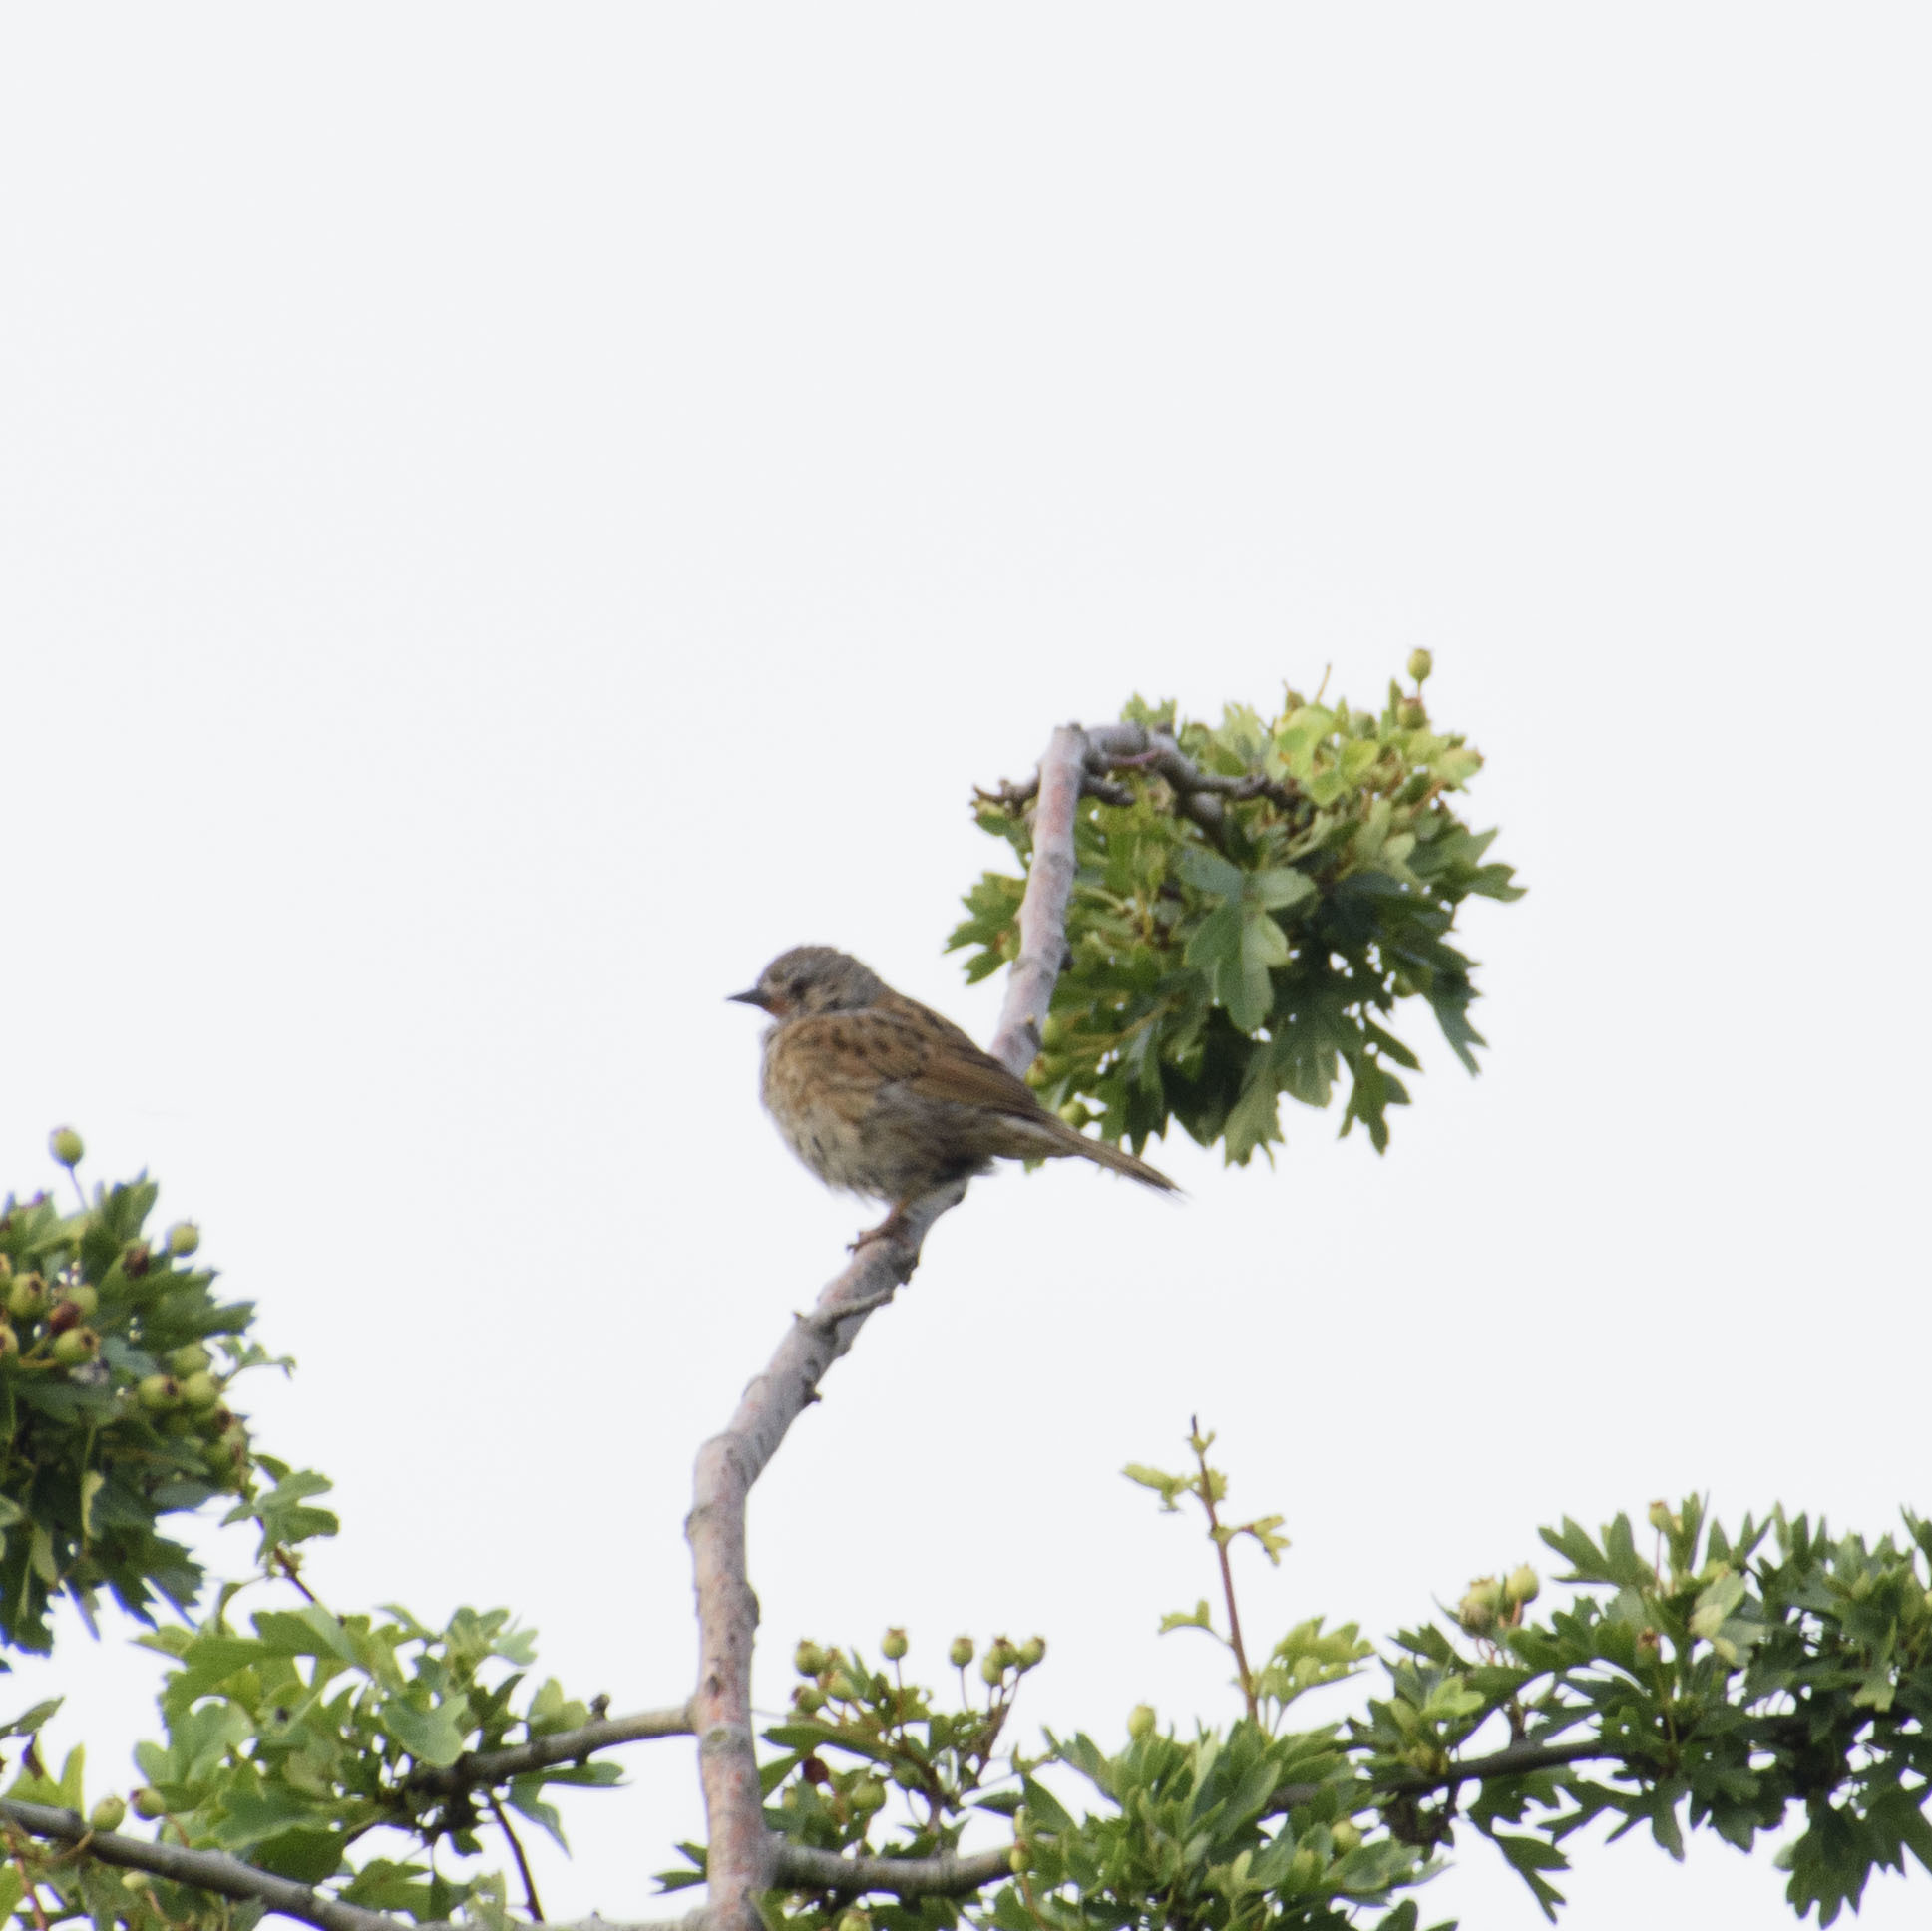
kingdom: Animalia
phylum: Chordata
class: Aves
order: Passeriformes
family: Prunellidae
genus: Prunella
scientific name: Prunella modularis
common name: Dunnock
